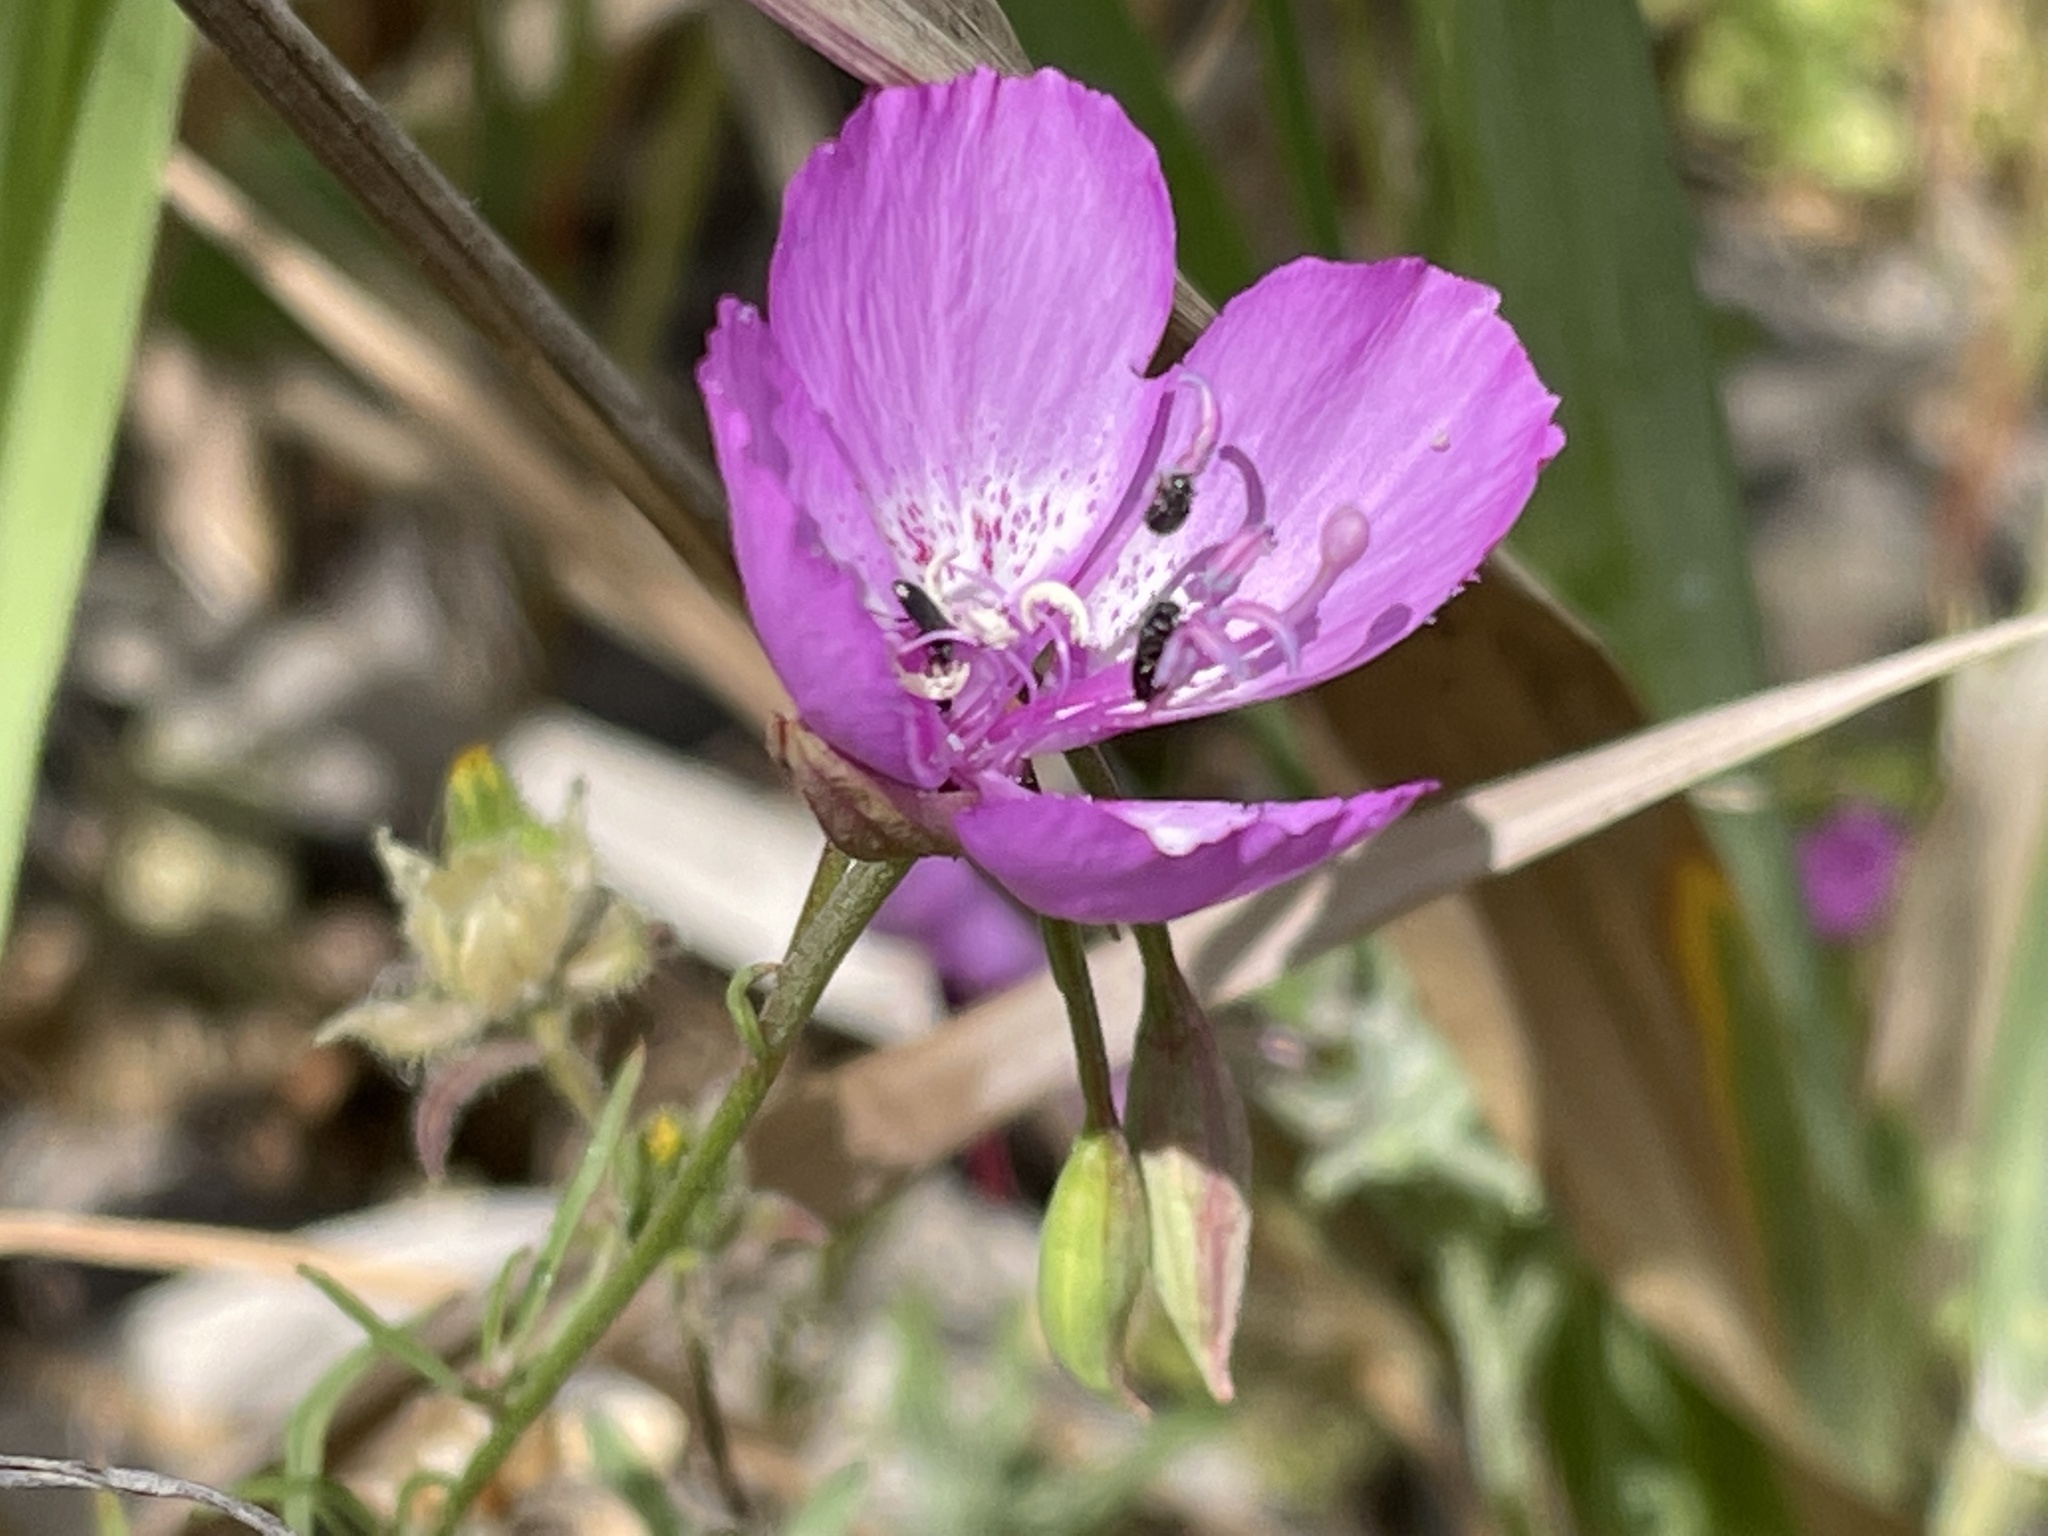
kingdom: Plantae
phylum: Tracheophyta
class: Magnoliopsida
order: Myrtales
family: Onagraceae
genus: Clarkia
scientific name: Clarkia lewisii
